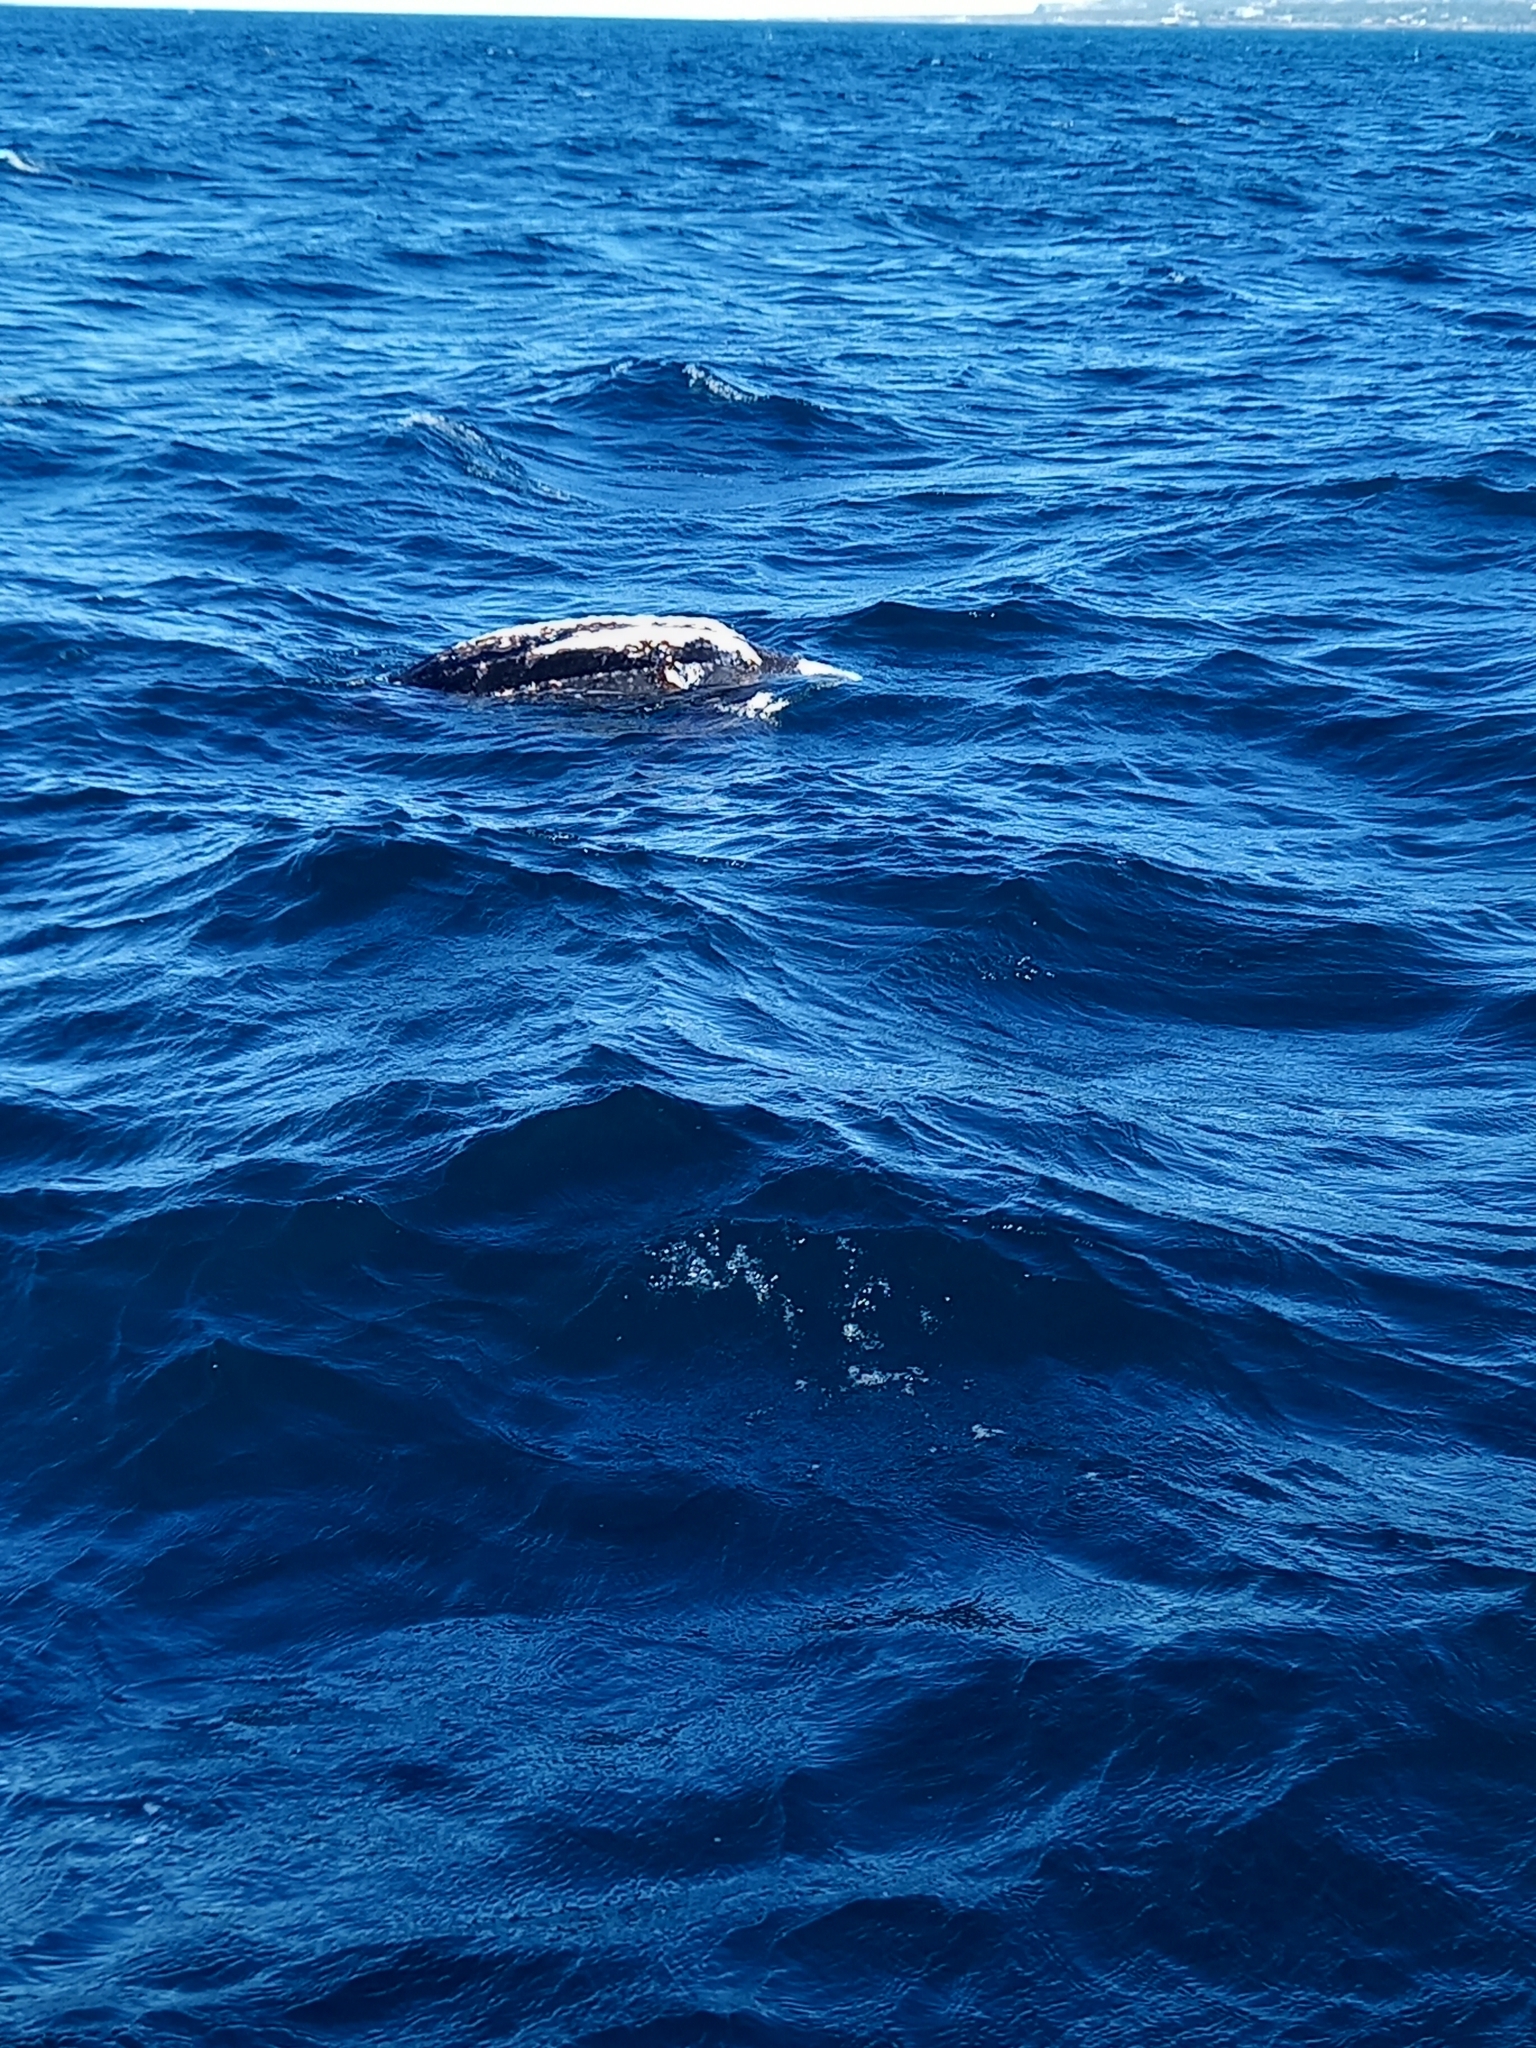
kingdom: Animalia
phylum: Chordata
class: Testudines
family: Dermochelyidae
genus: Dermochelys
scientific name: Dermochelys coriacea
